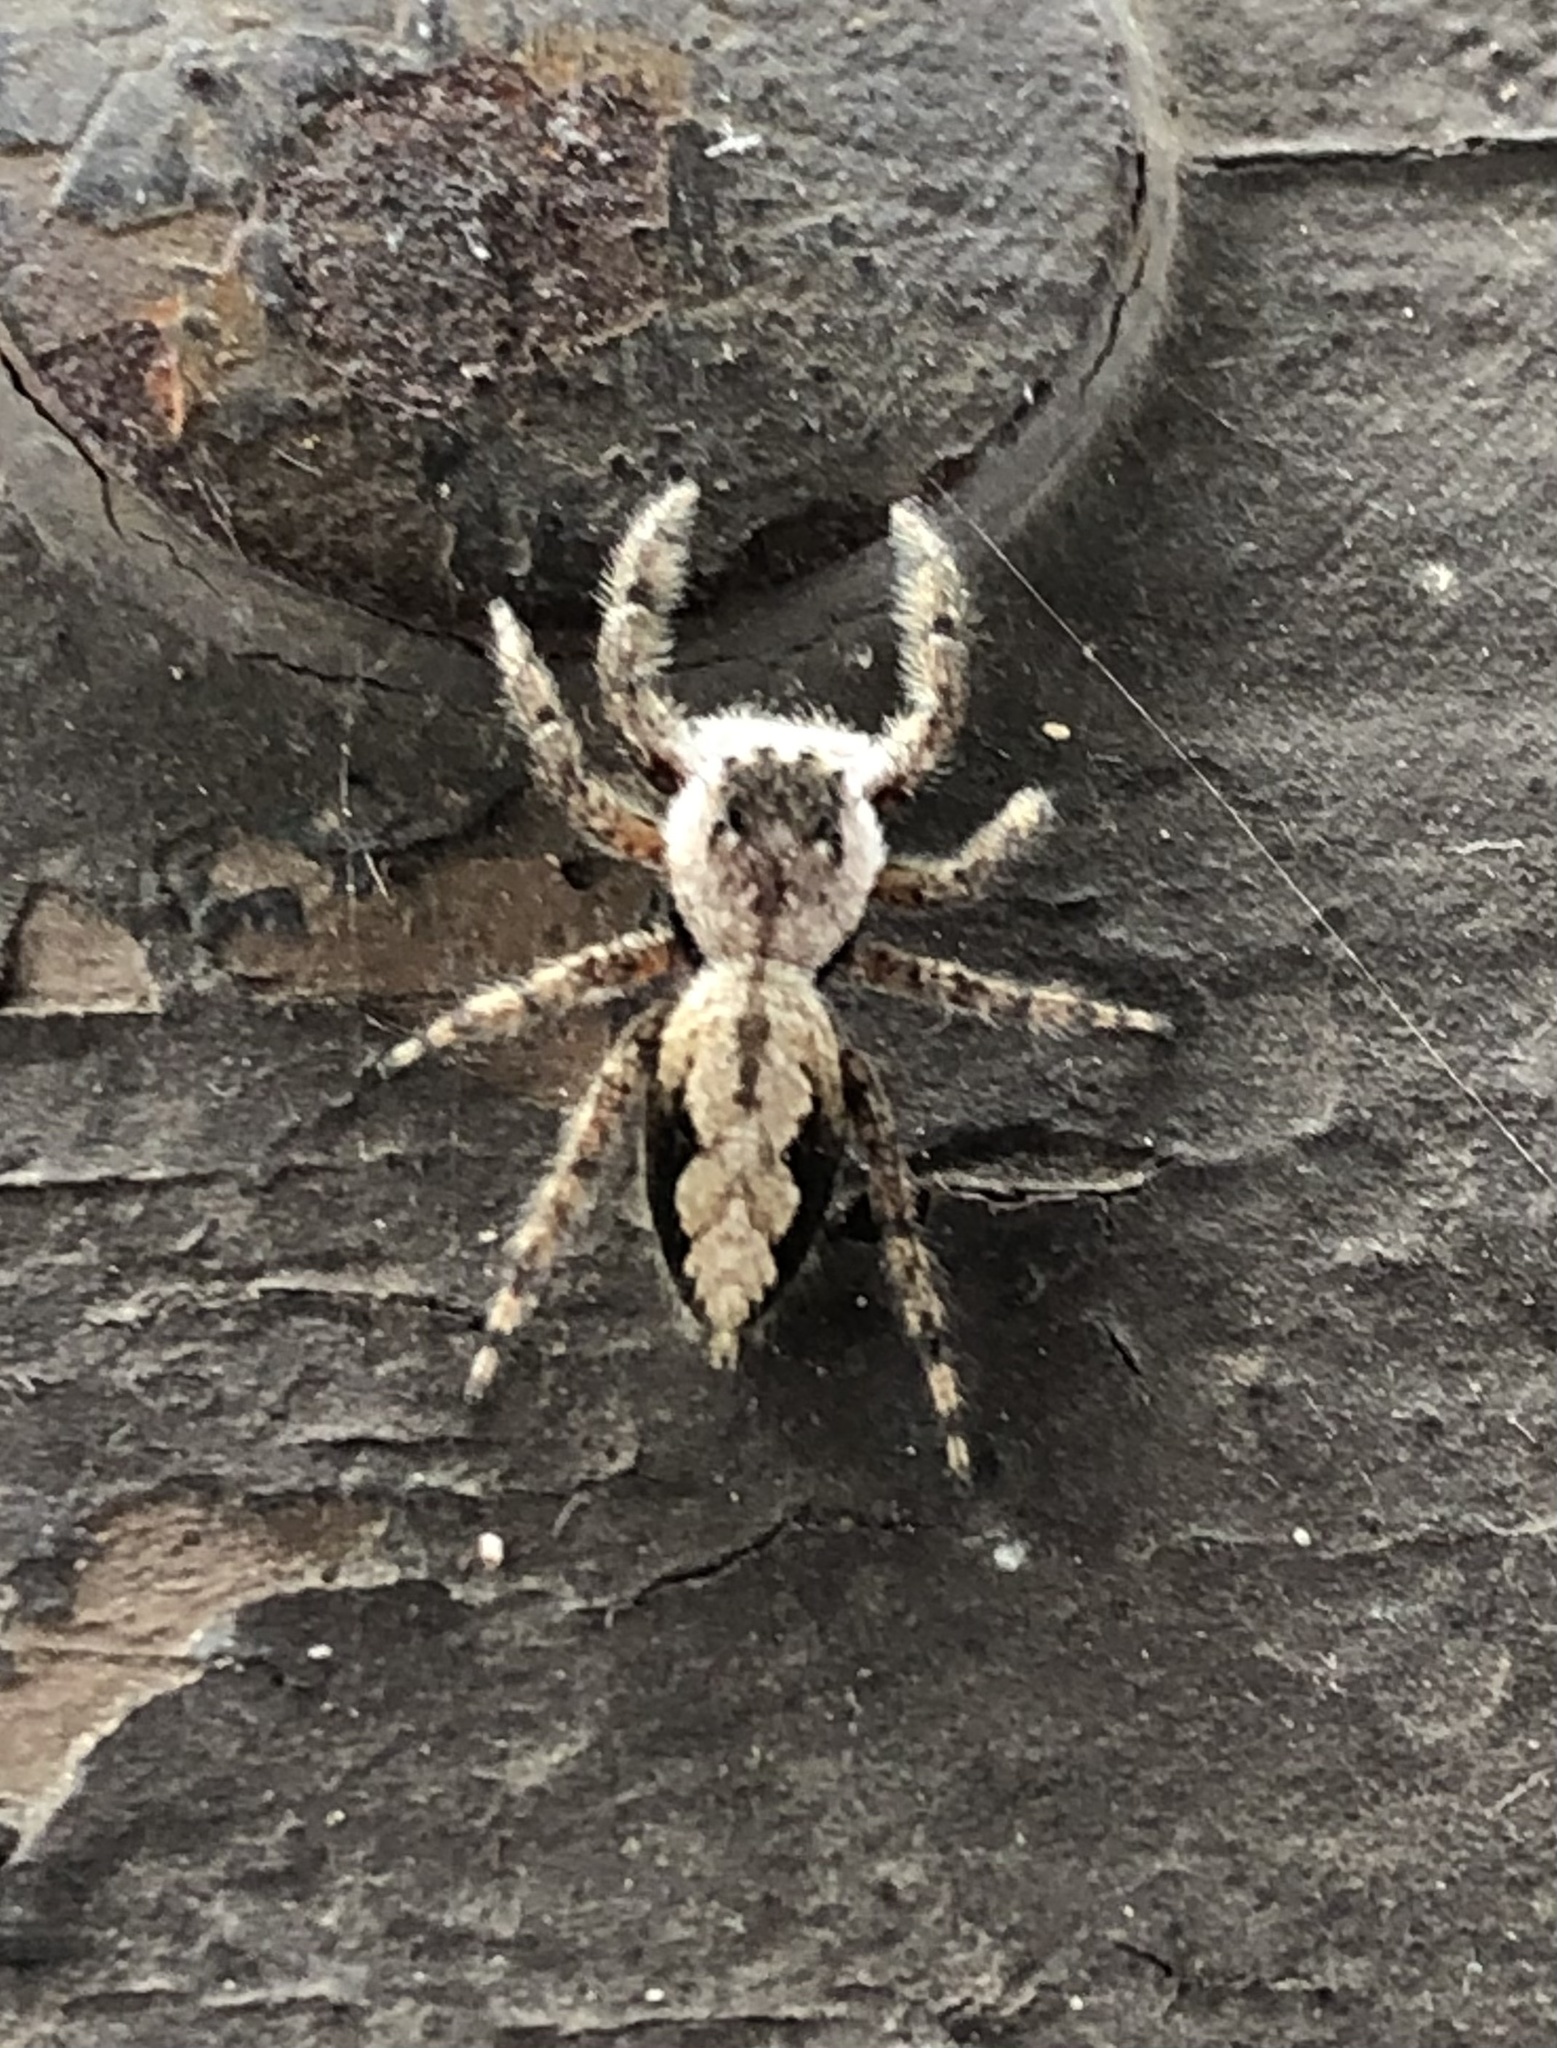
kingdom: Animalia
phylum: Arthropoda
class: Arachnida
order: Araneae
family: Salticidae
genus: Platycryptus
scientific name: Platycryptus undatus
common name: Tan jumping spider
